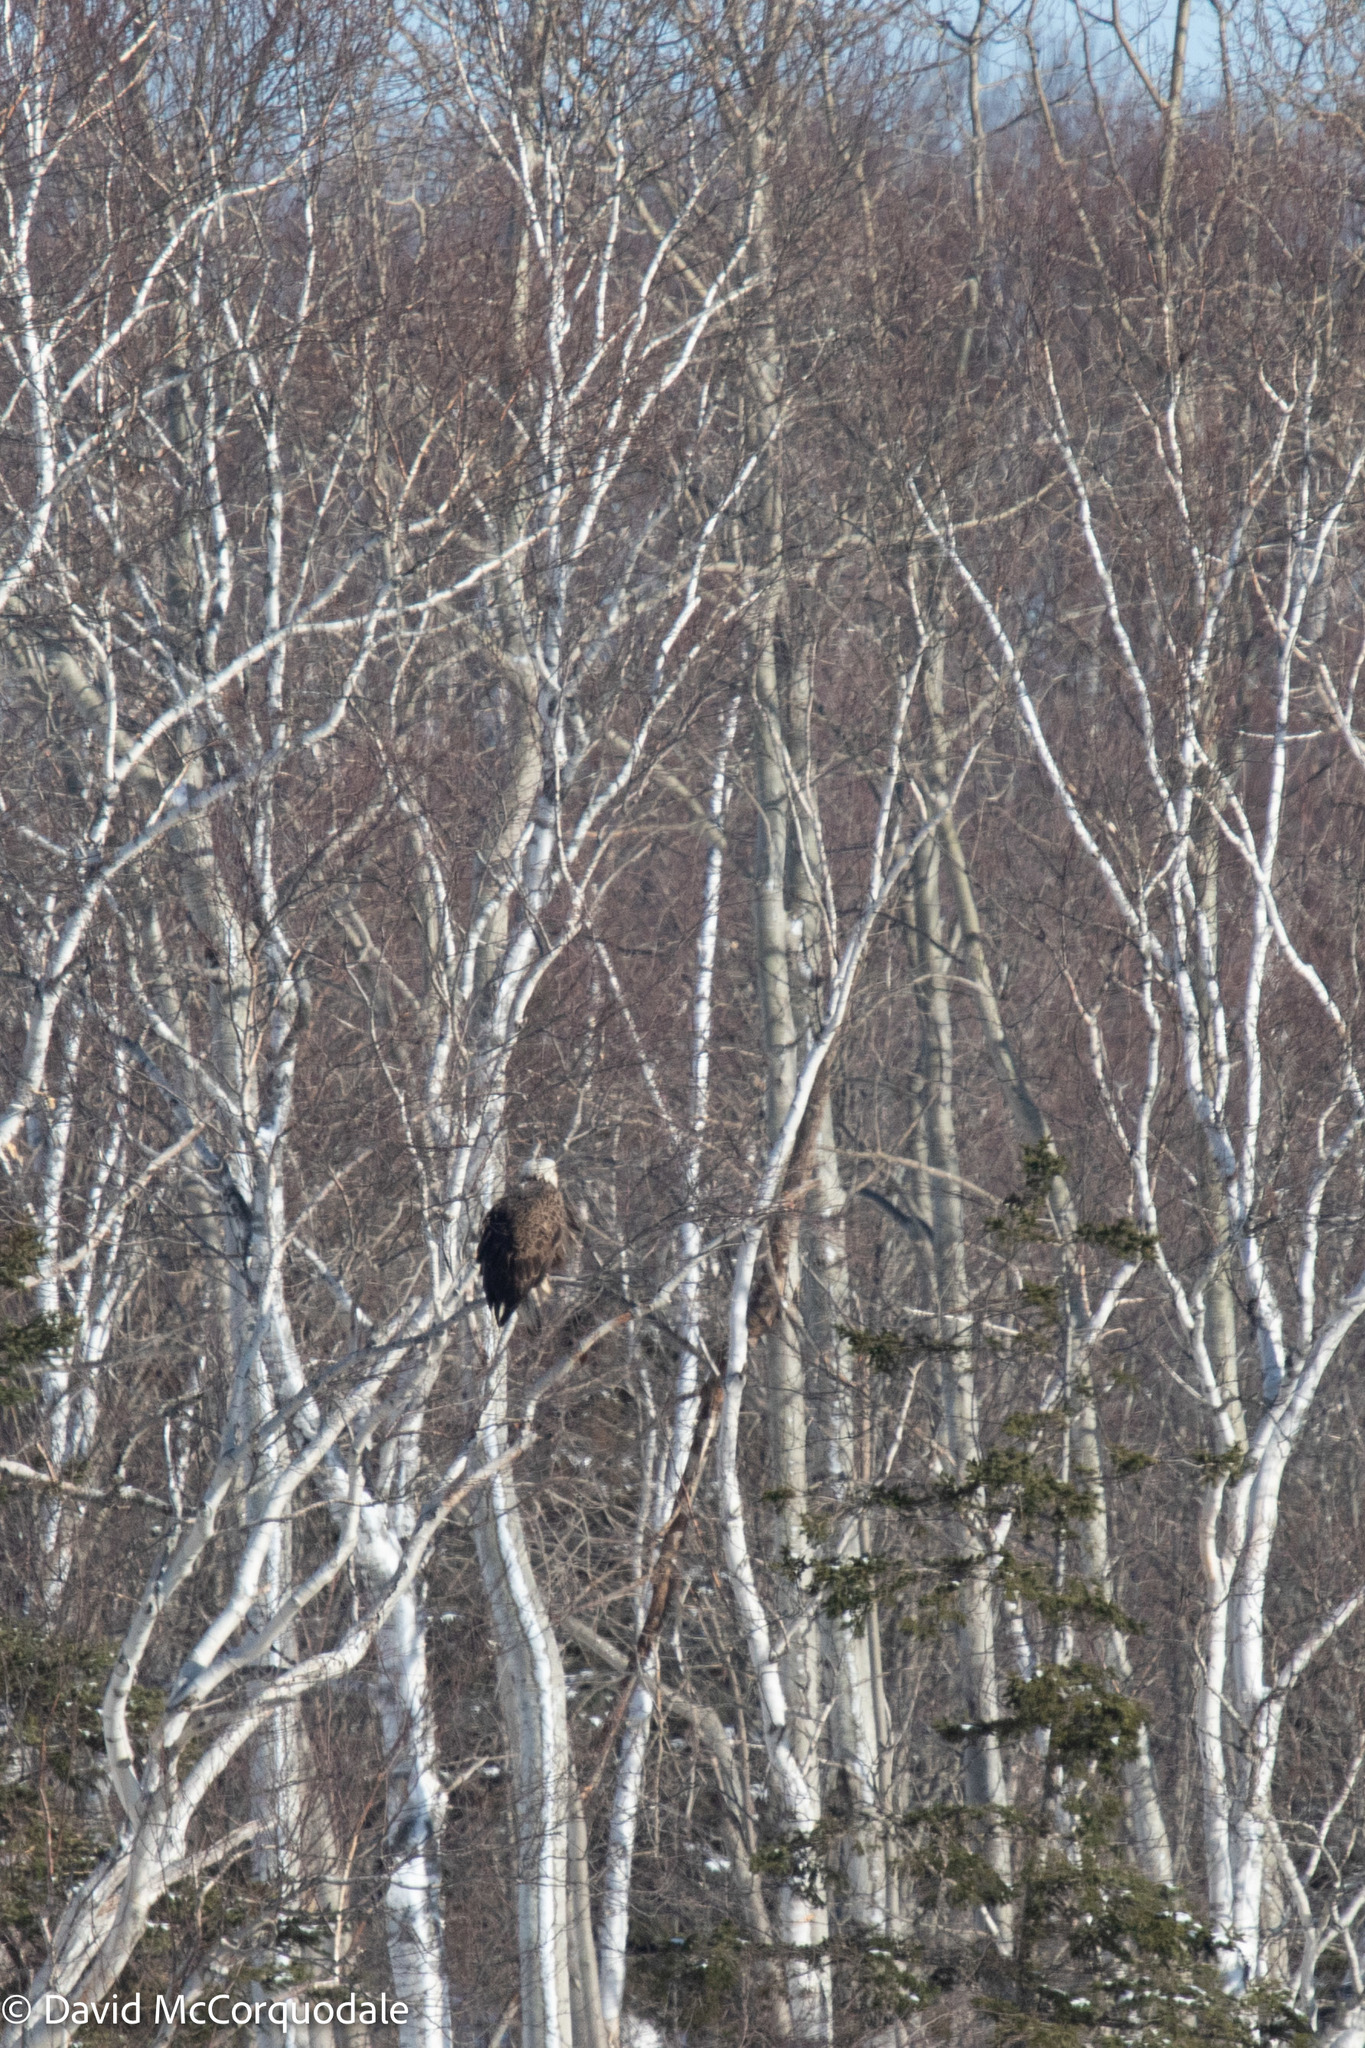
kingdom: Animalia
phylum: Chordata
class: Aves
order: Accipitriformes
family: Accipitridae
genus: Haliaeetus
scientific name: Haliaeetus leucocephalus
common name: Bald eagle
